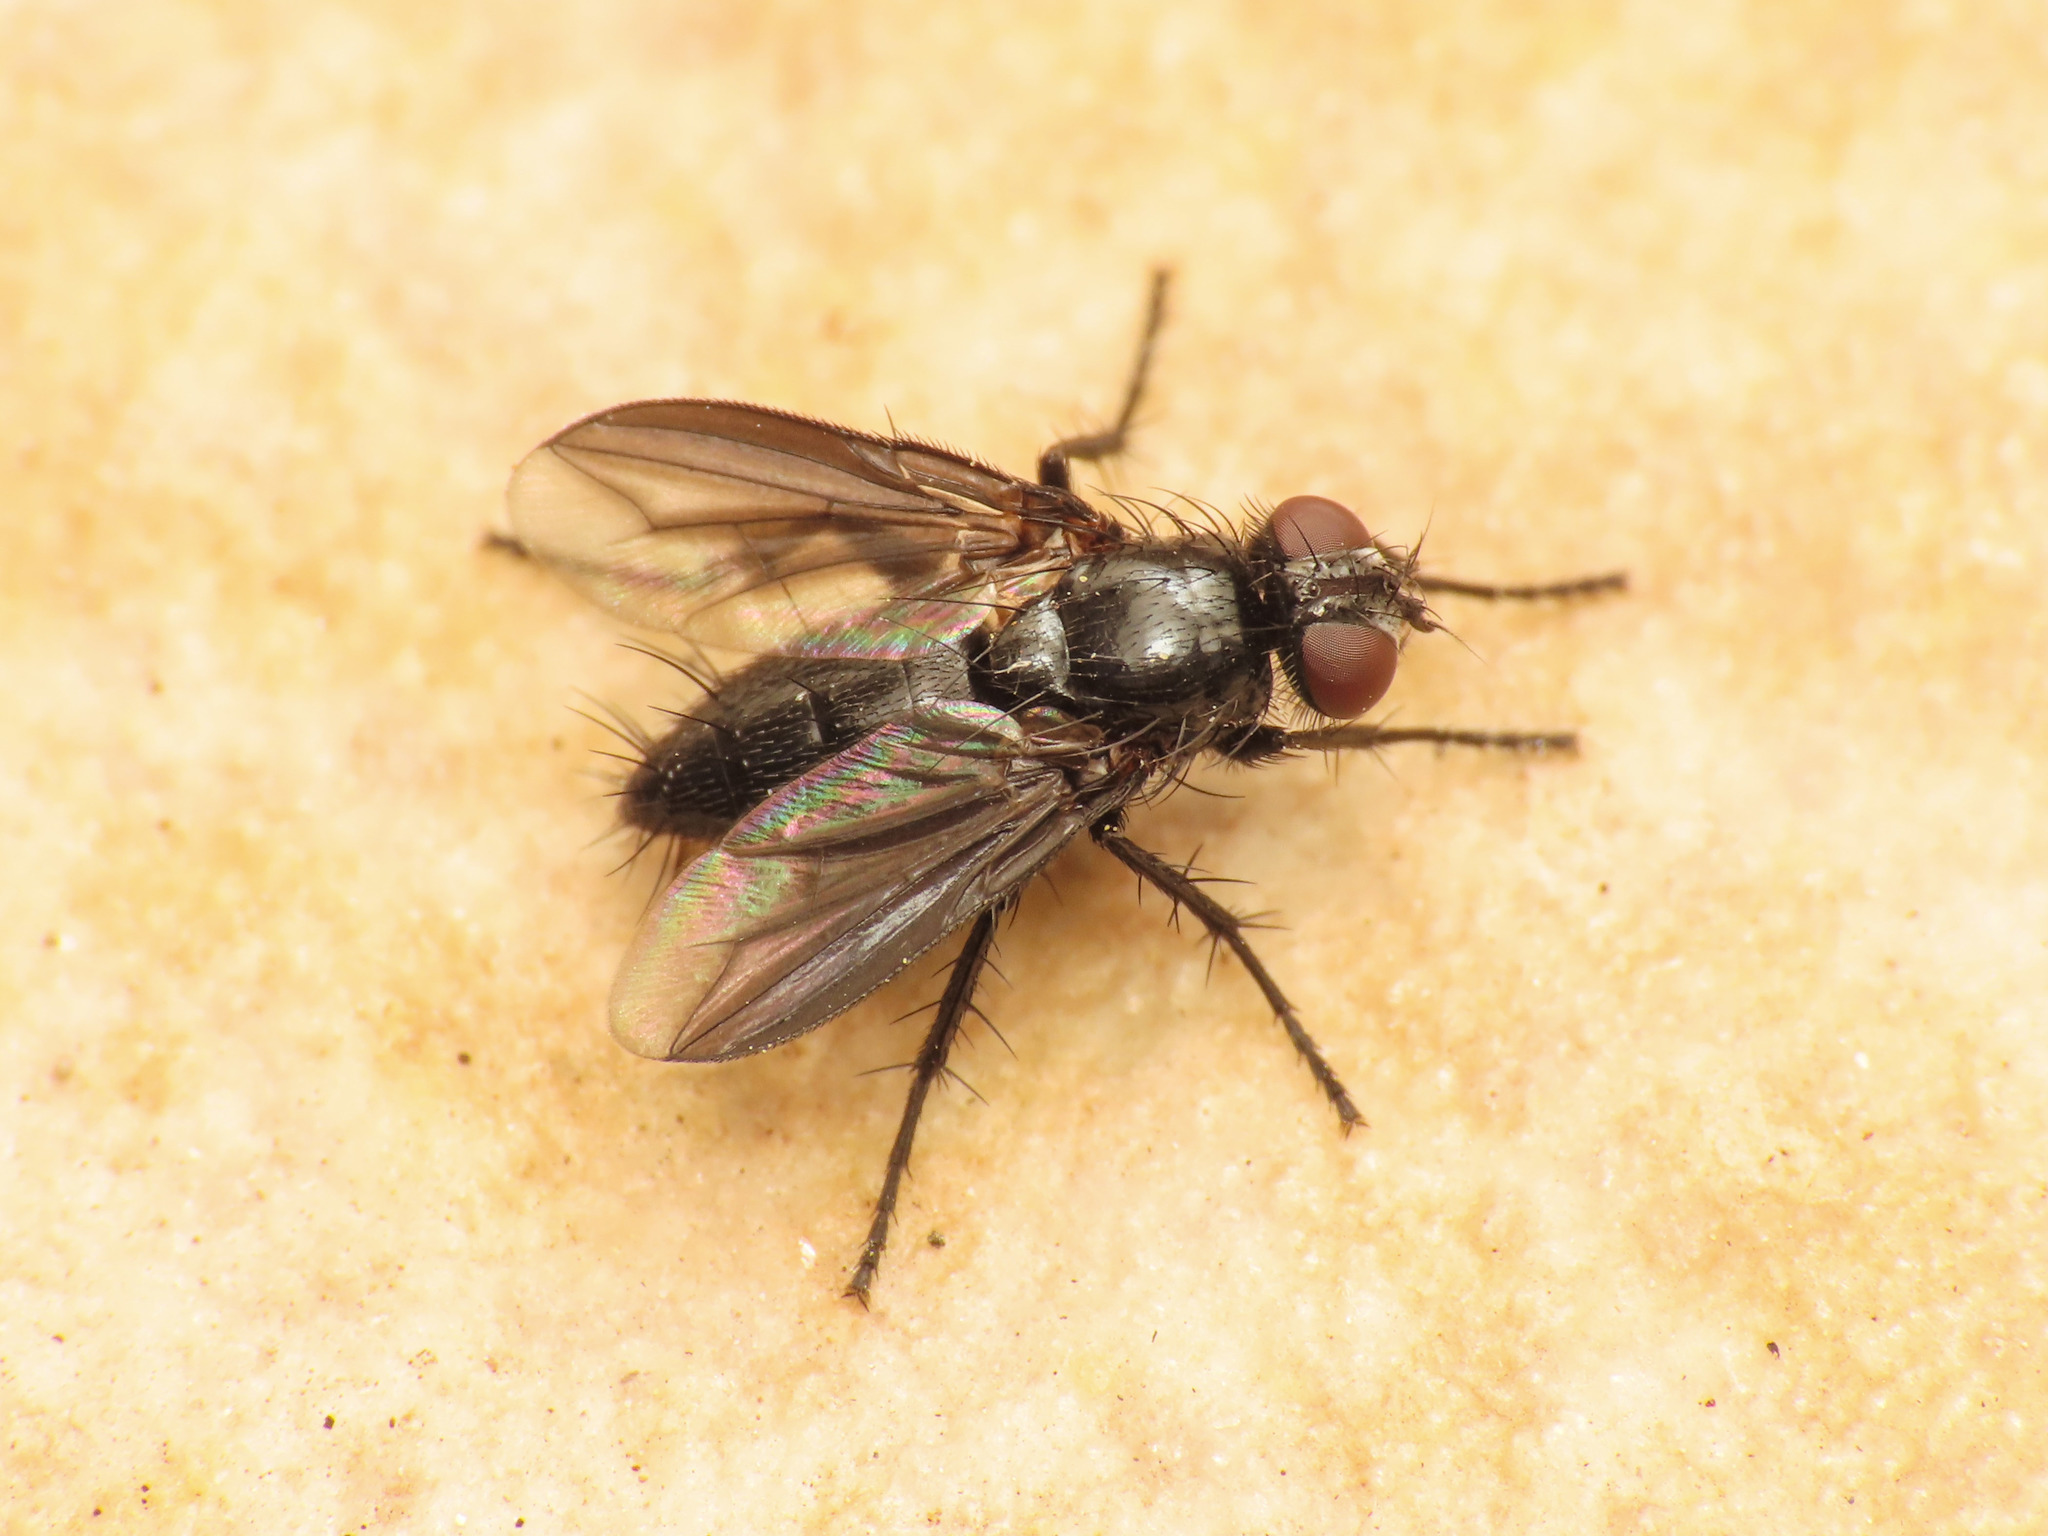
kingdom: Animalia
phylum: Arthropoda
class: Insecta
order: Diptera
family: Sarcophagidae
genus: Nyctia
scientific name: Nyctia halterata
